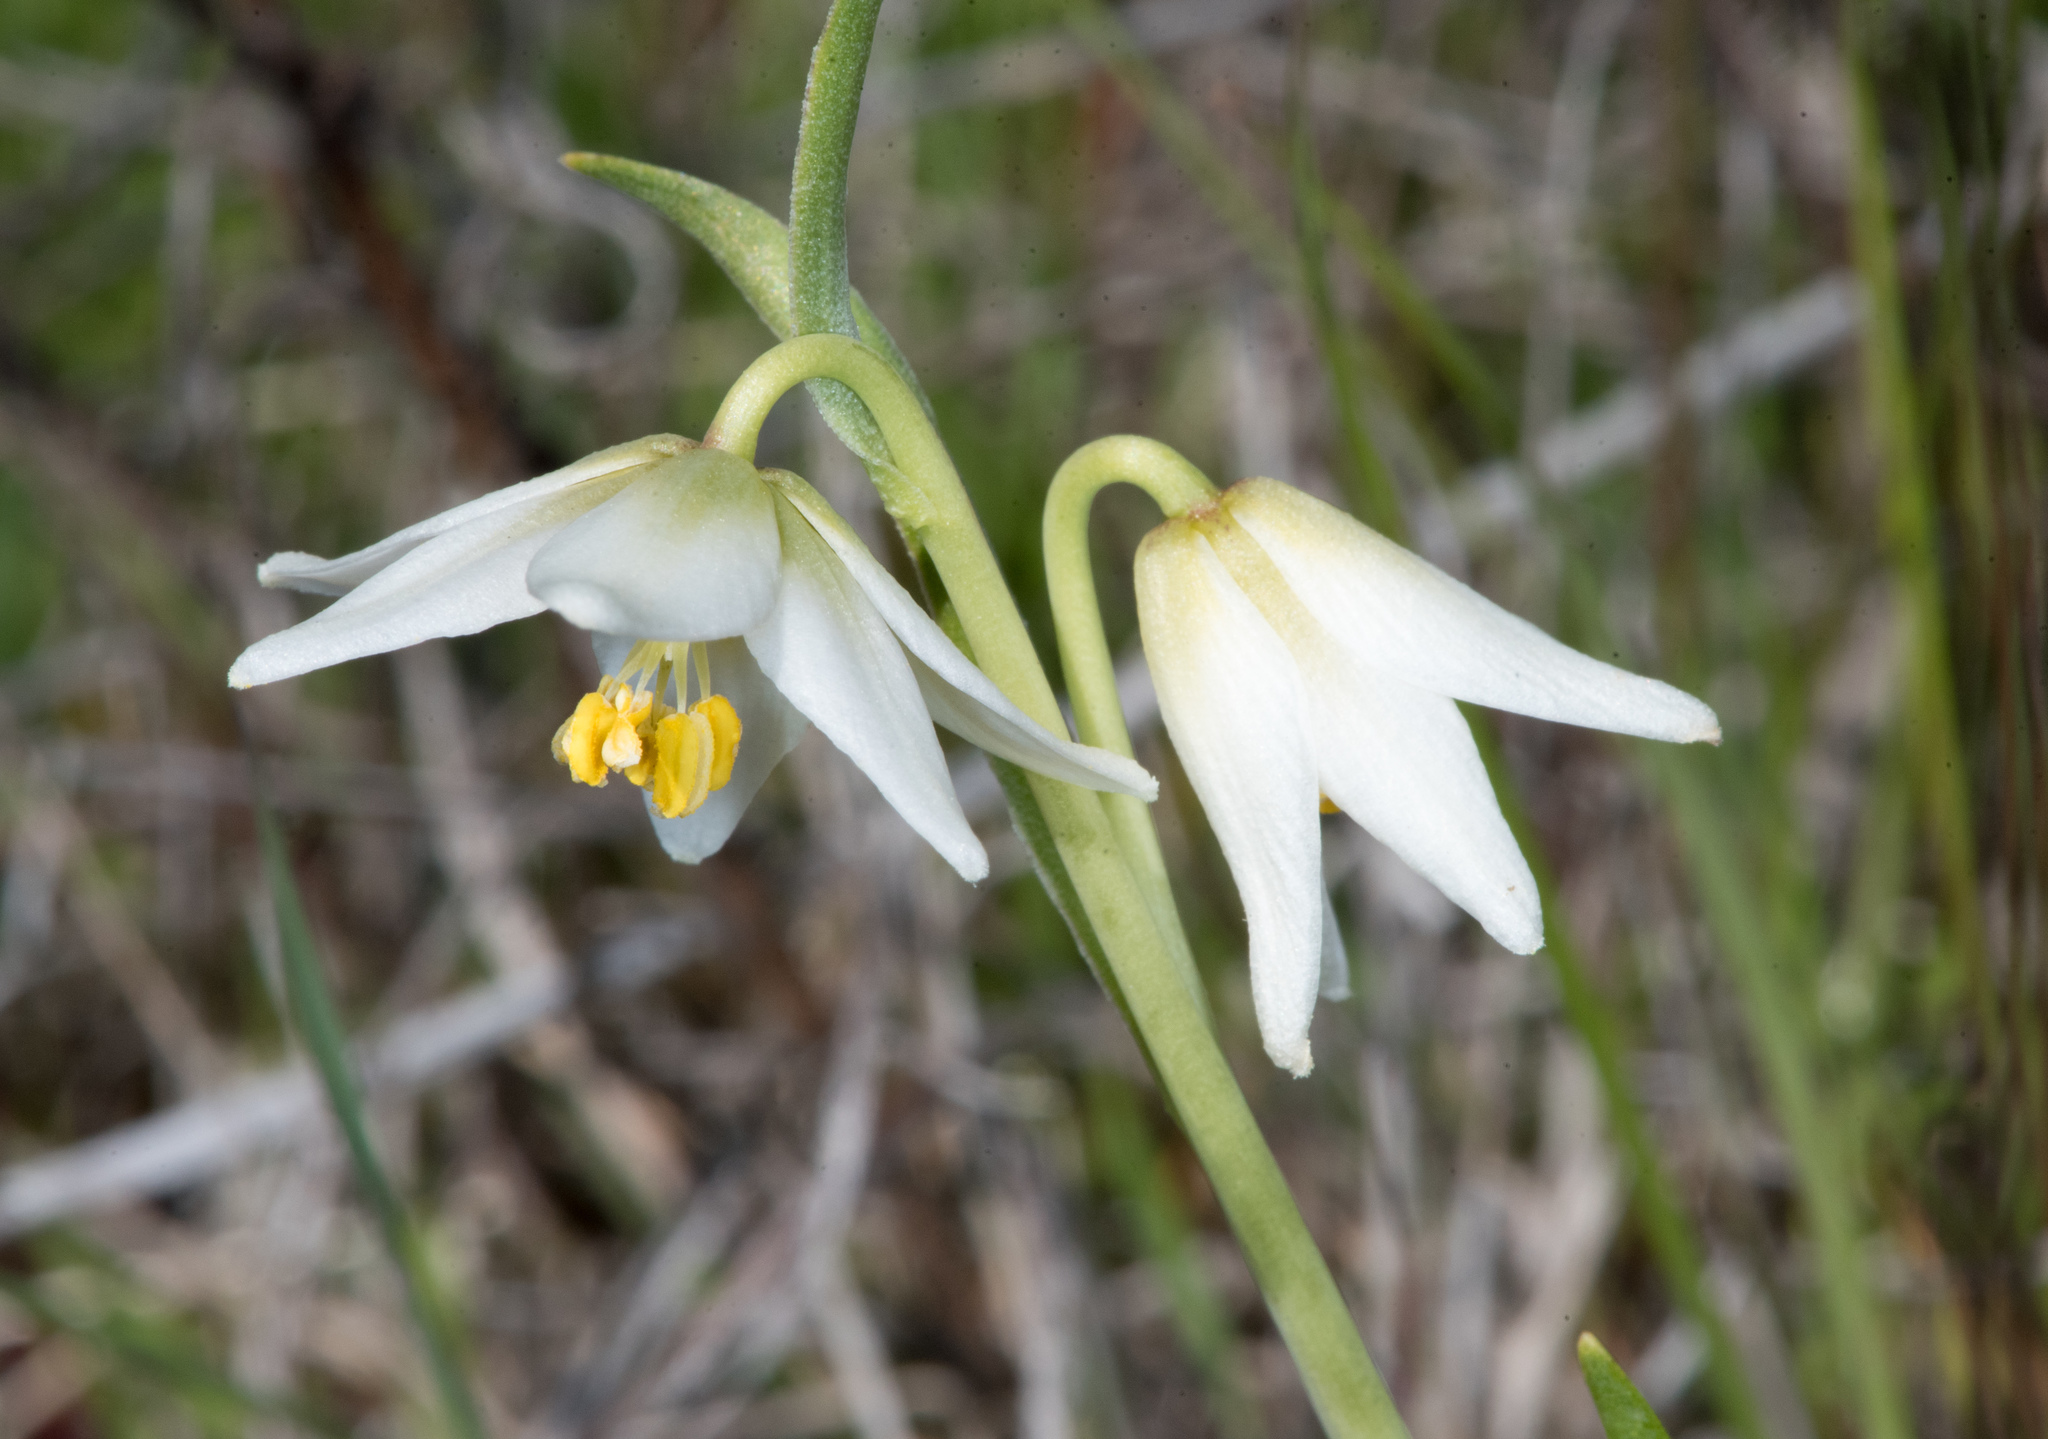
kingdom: Plantae
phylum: Tracheophyta
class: Liliopsida
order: Liliales
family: Liliaceae
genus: Fritillaria
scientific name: Fritillaria liliacea
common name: Fragrant fritillary
